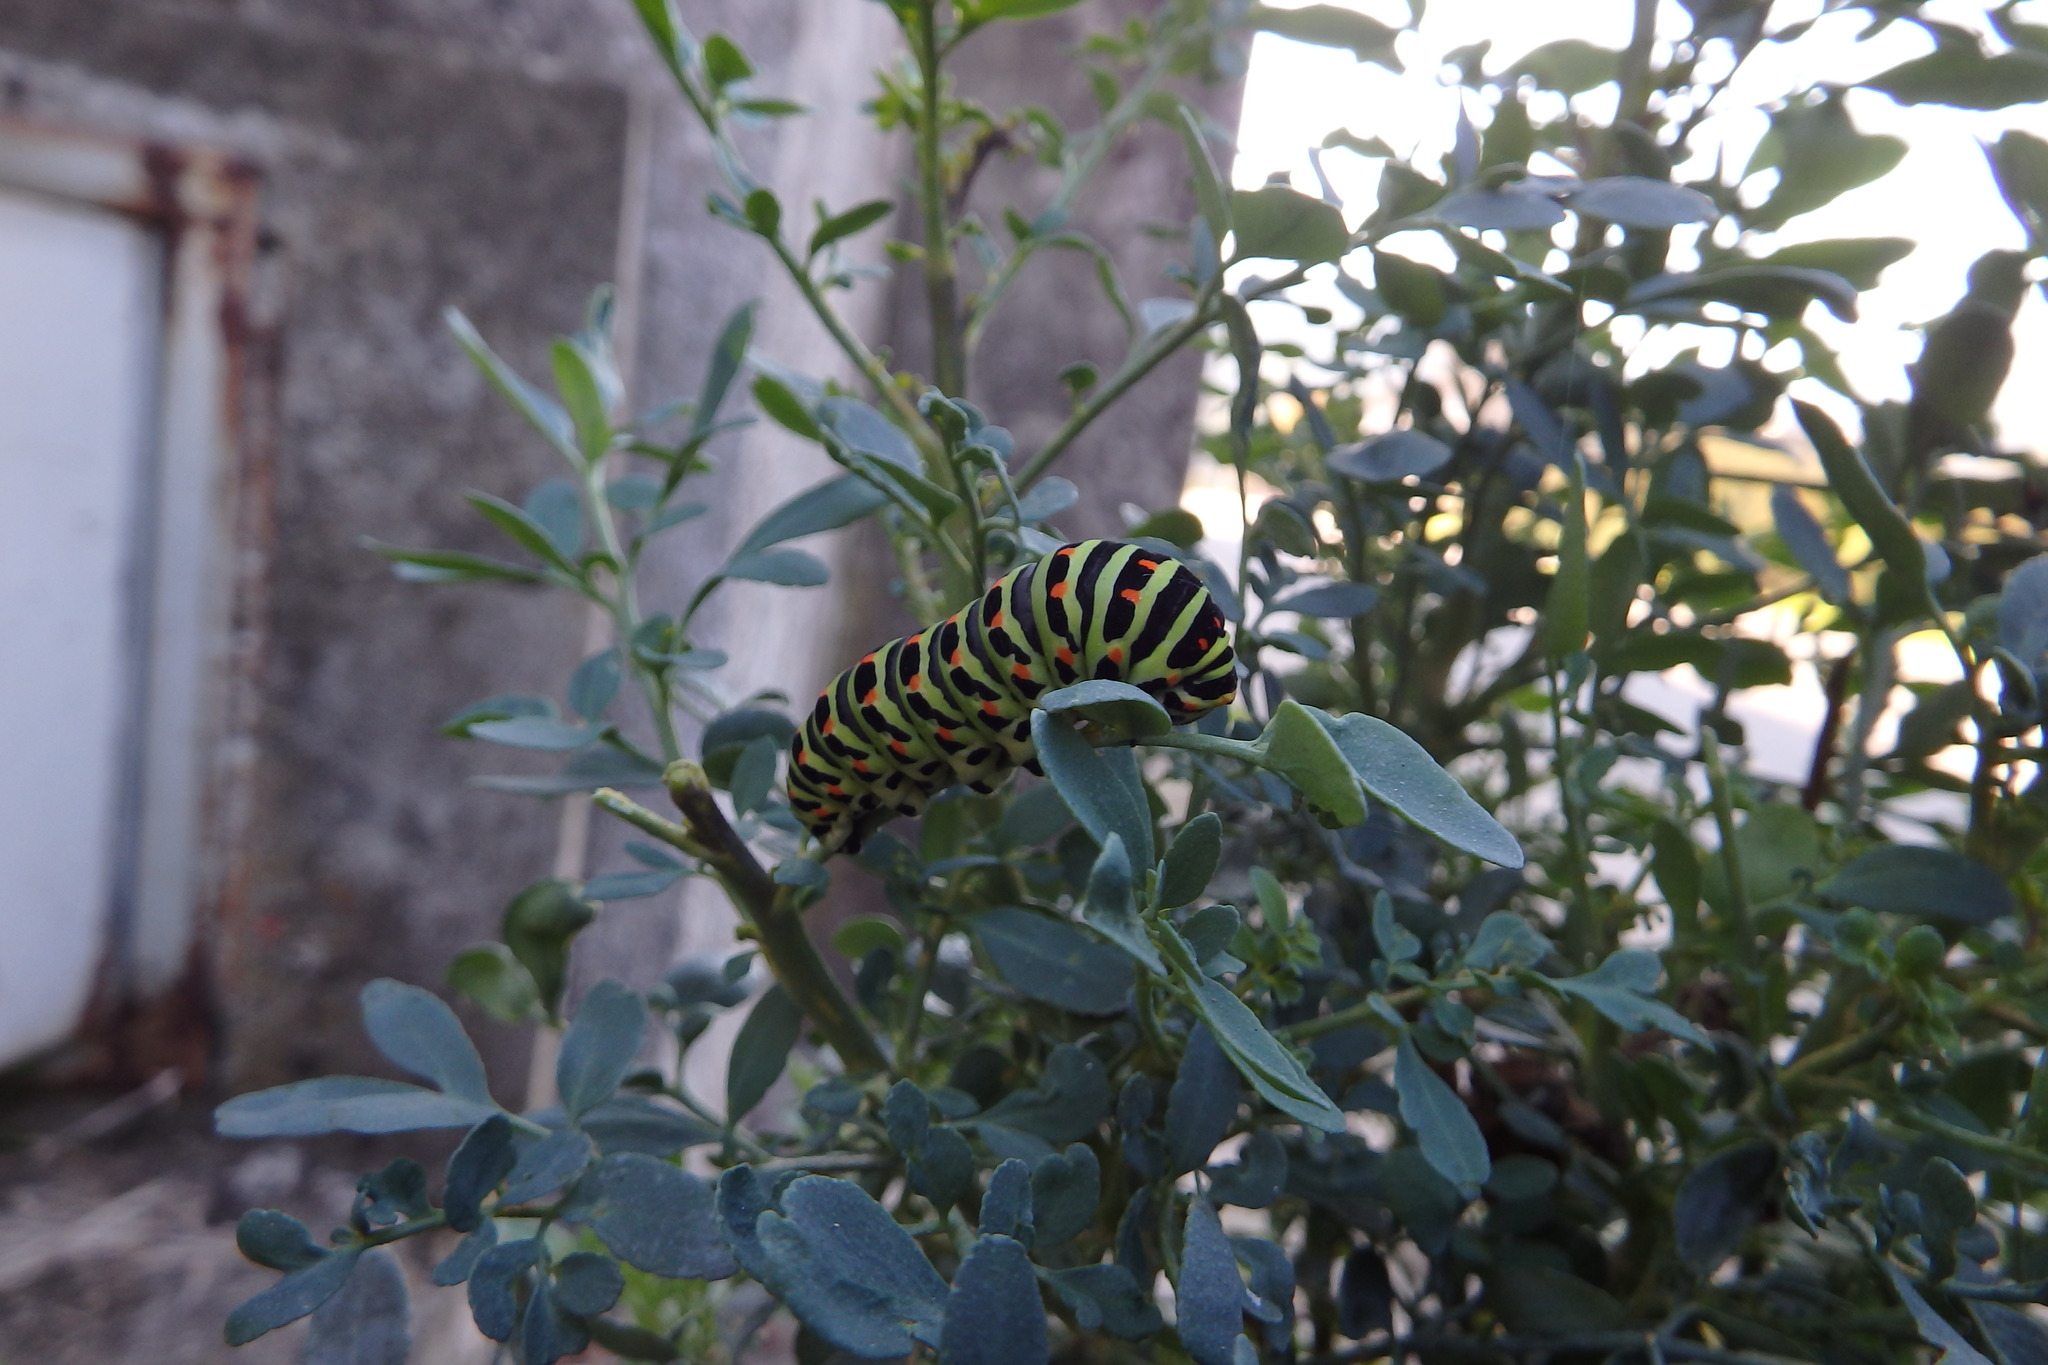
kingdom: Animalia
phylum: Arthropoda
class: Insecta
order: Lepidoptera
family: Papilionidae
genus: Papilio
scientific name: Papilio machaon
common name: Swallowtail
